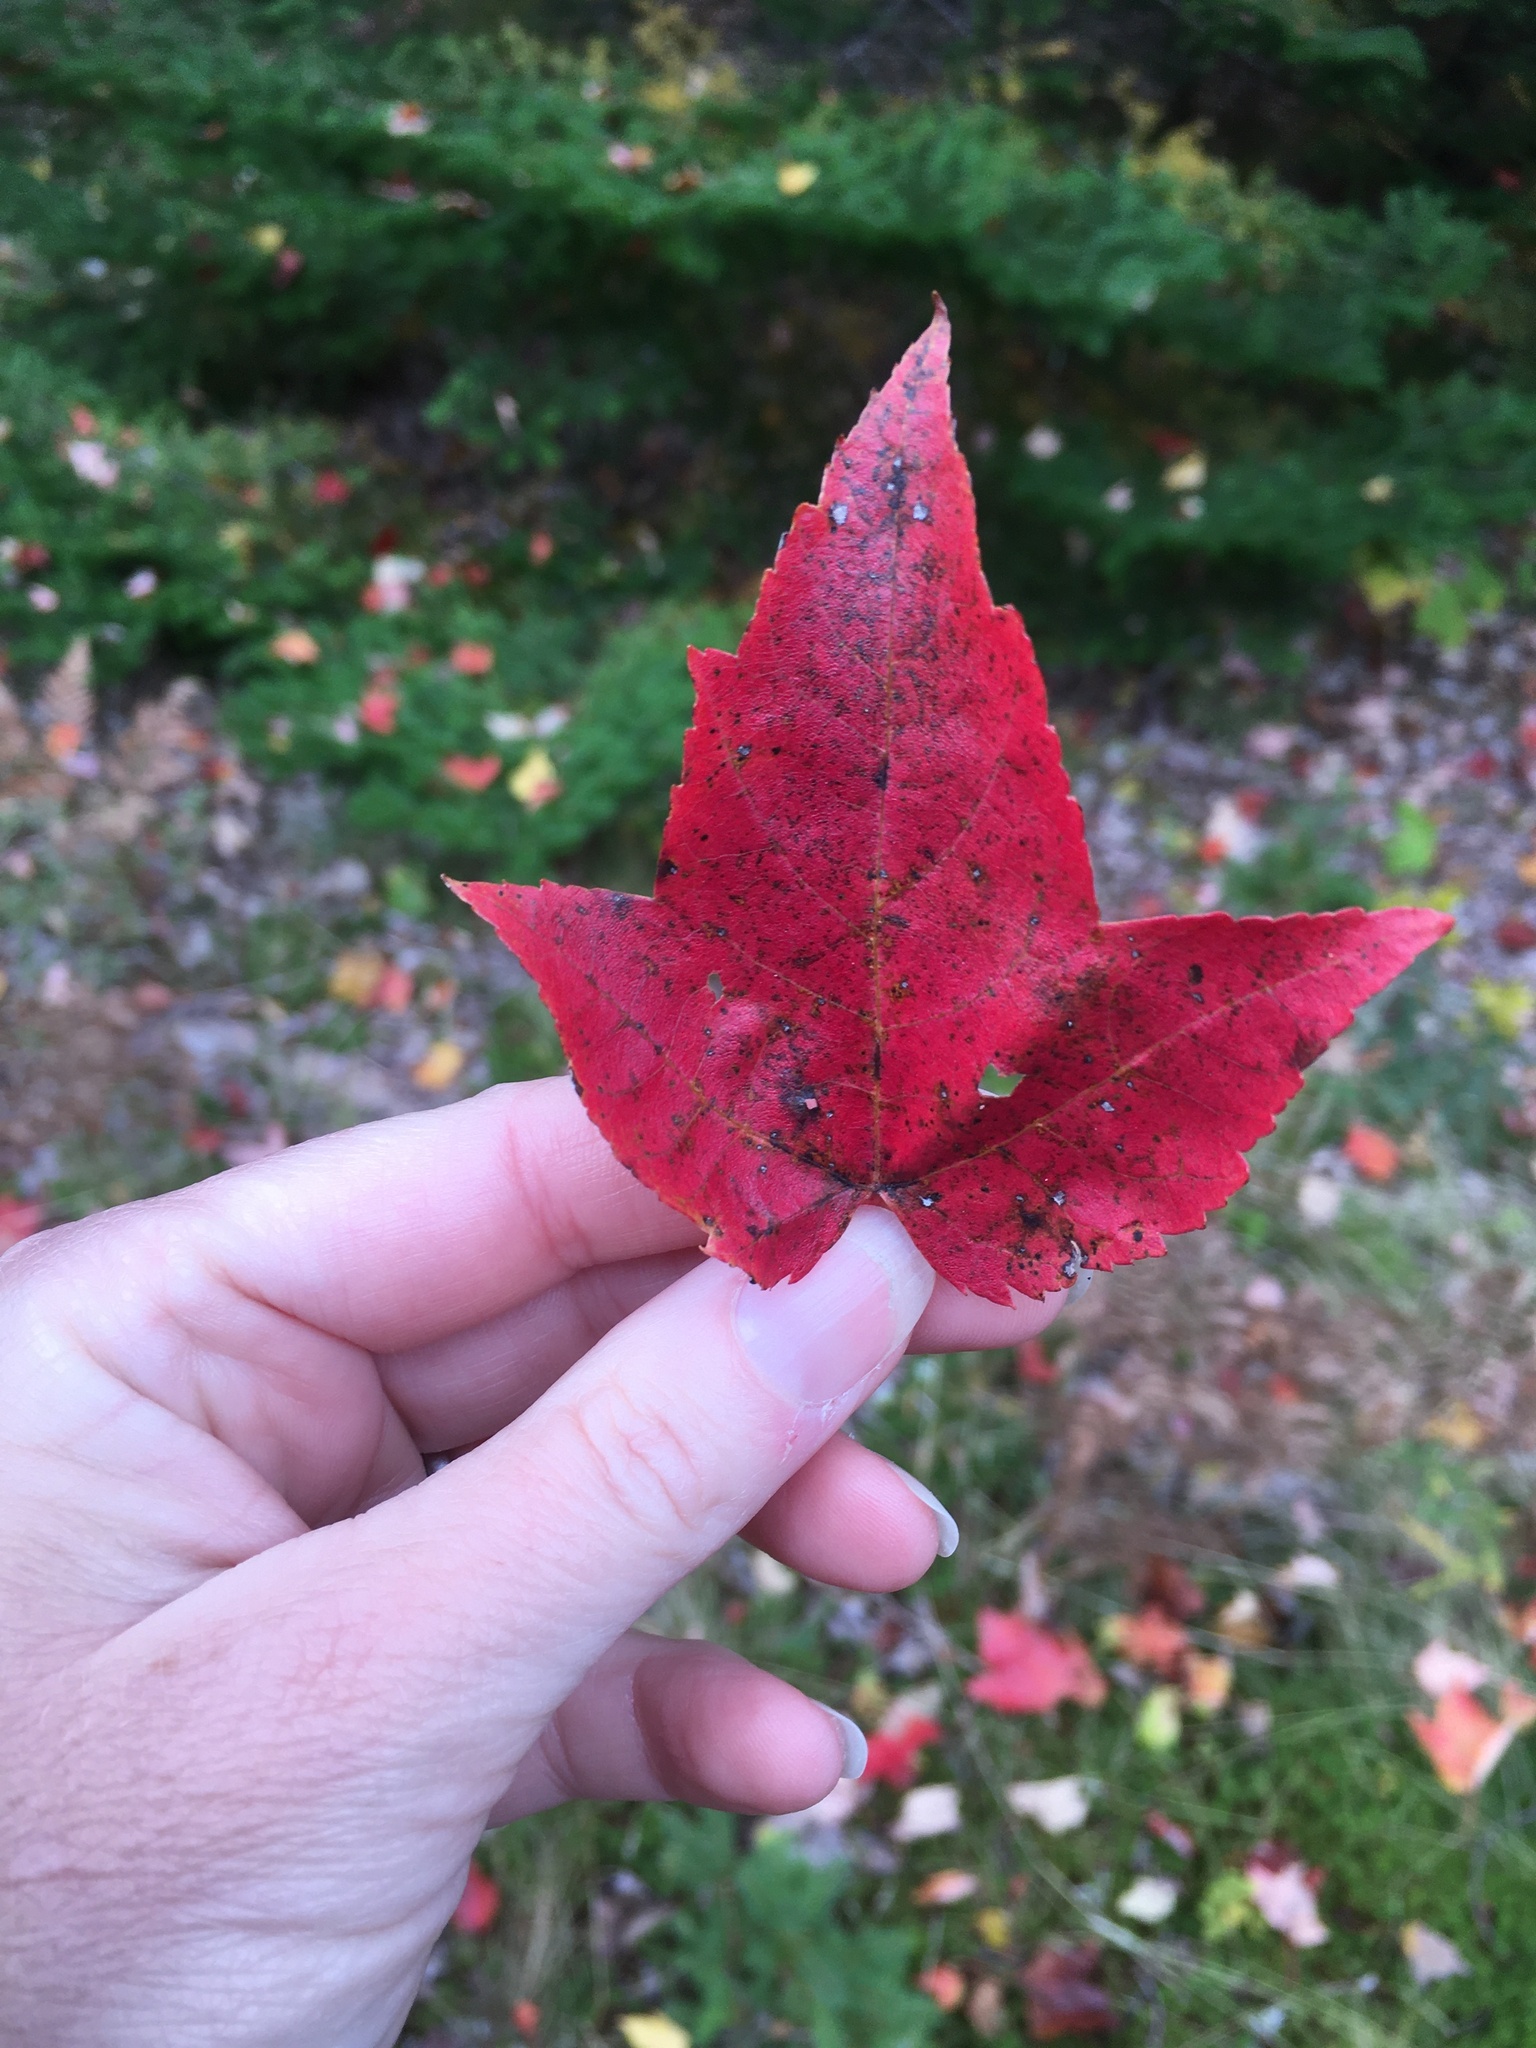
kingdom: Plantae
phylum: Tracheophyta
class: Magnoliopsida
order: Sapindales
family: Sapindaceae
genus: Acer
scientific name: Acer rubrum
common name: Red maple
